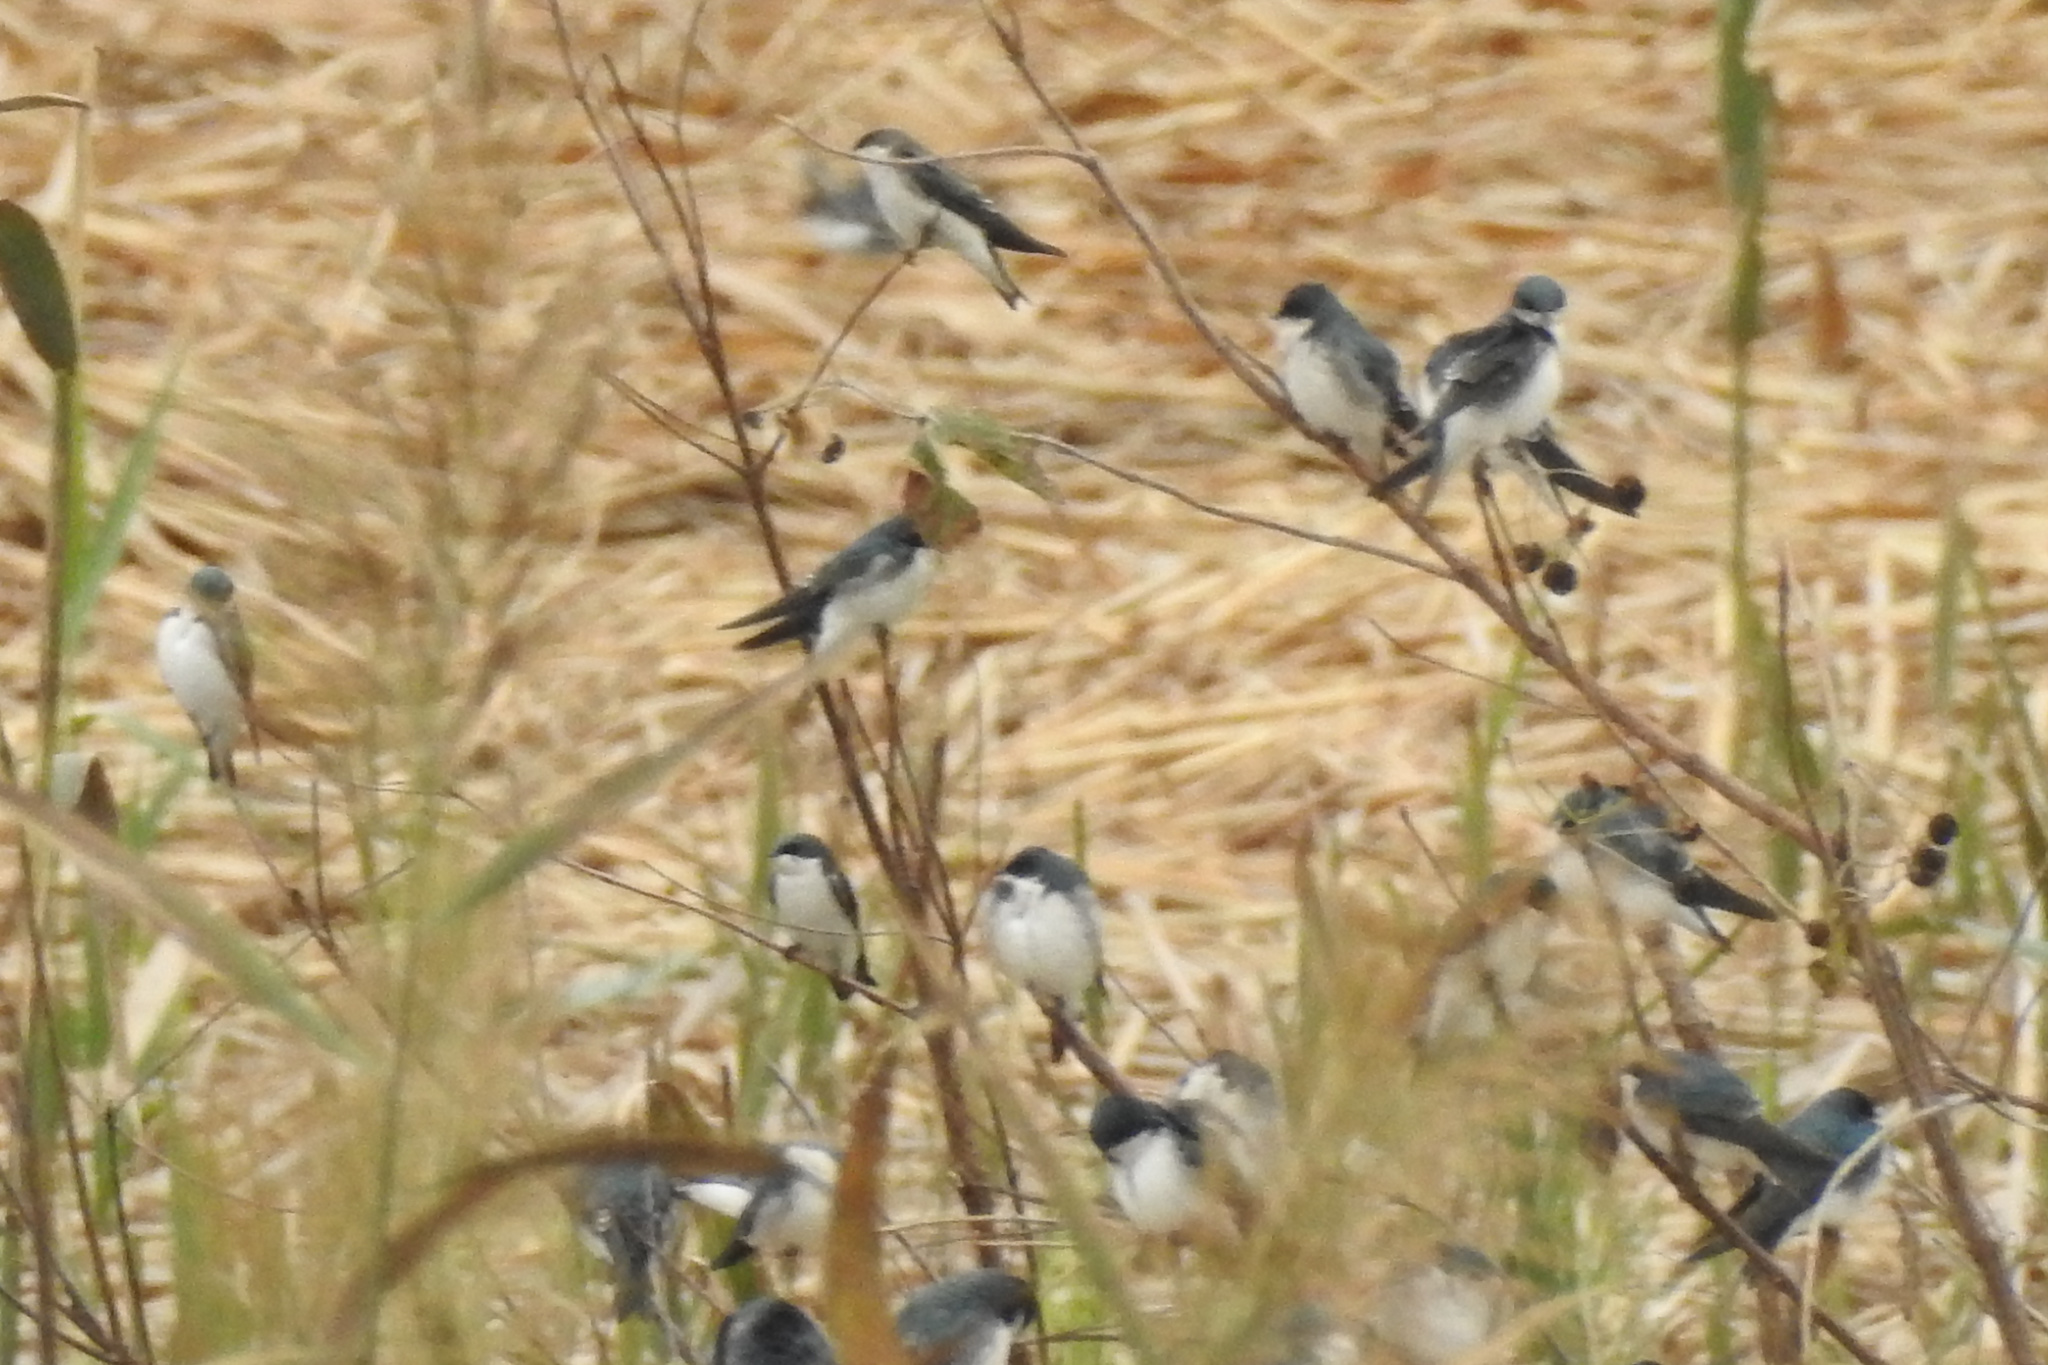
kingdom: Animalia
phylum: Chordata
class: Aves
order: Passeriformes
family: Hirundinidae
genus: Tachycineta
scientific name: Tachycineta bicolor
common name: Tree swallow
